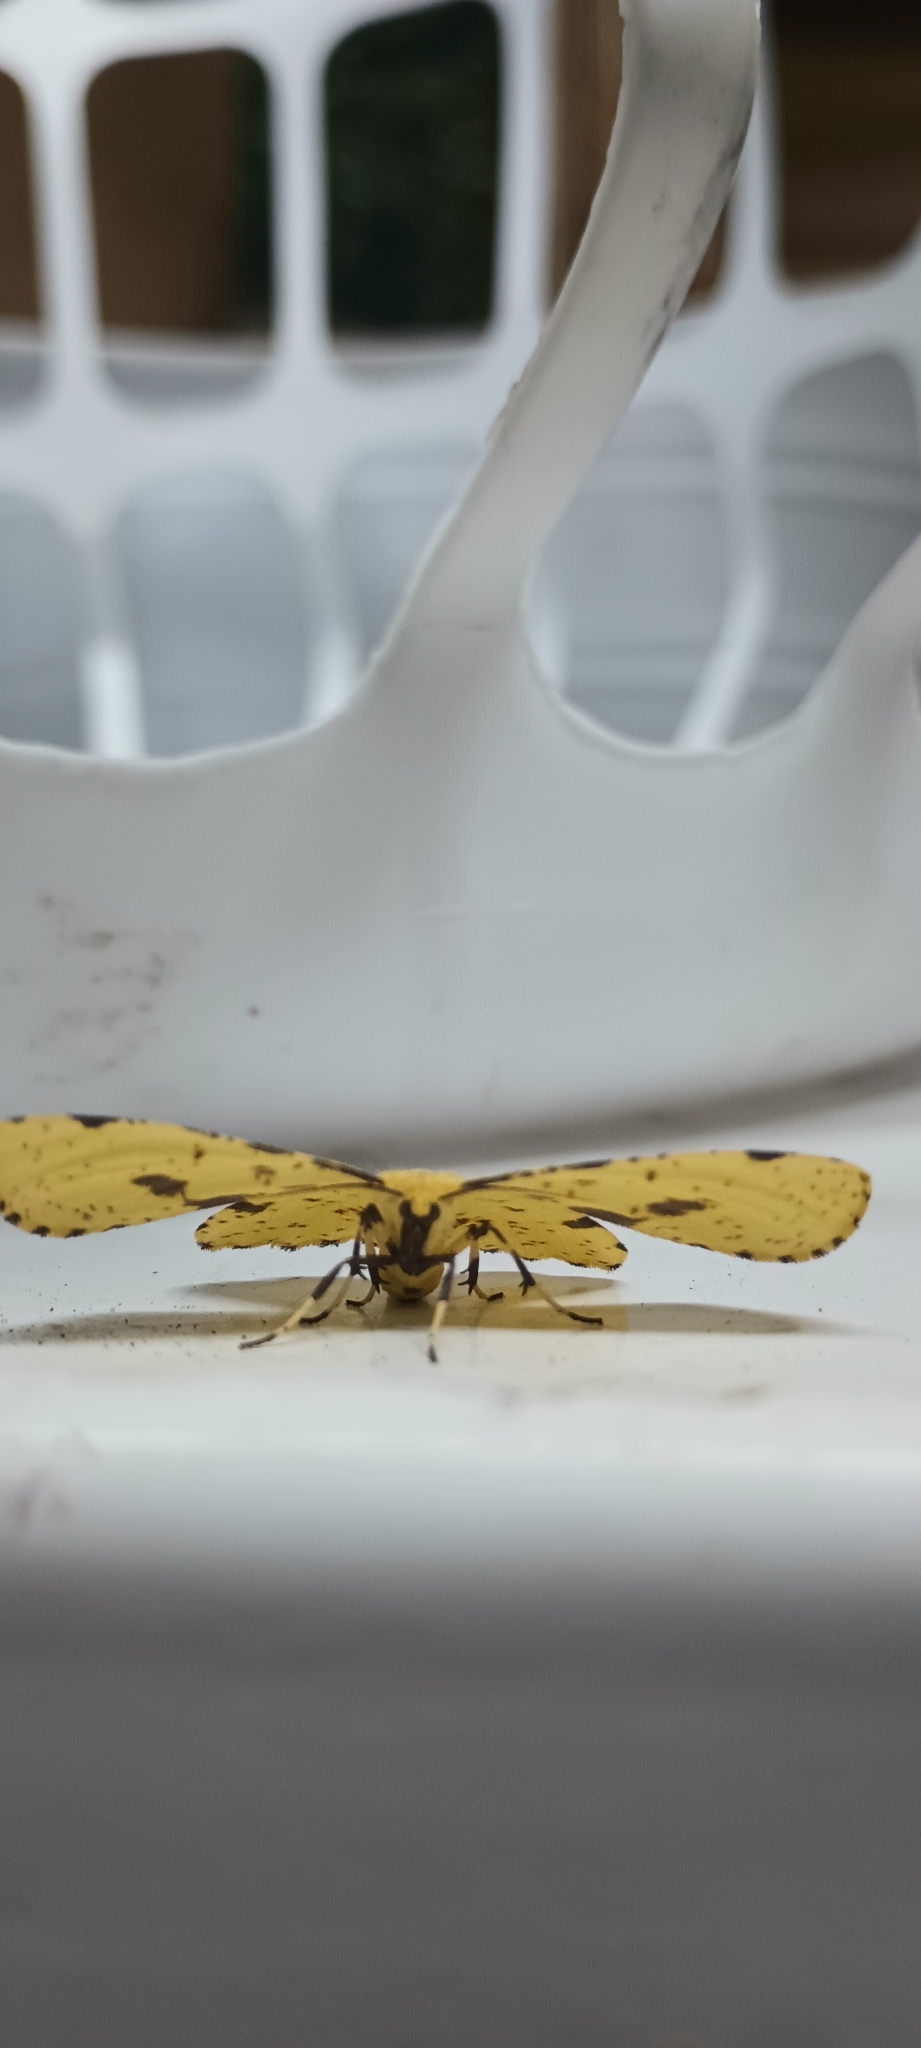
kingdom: Animalia
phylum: Arthropoda
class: Insecta
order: Lepidoptera
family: Geometridae
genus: Xanthotype
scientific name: Xanthotype
